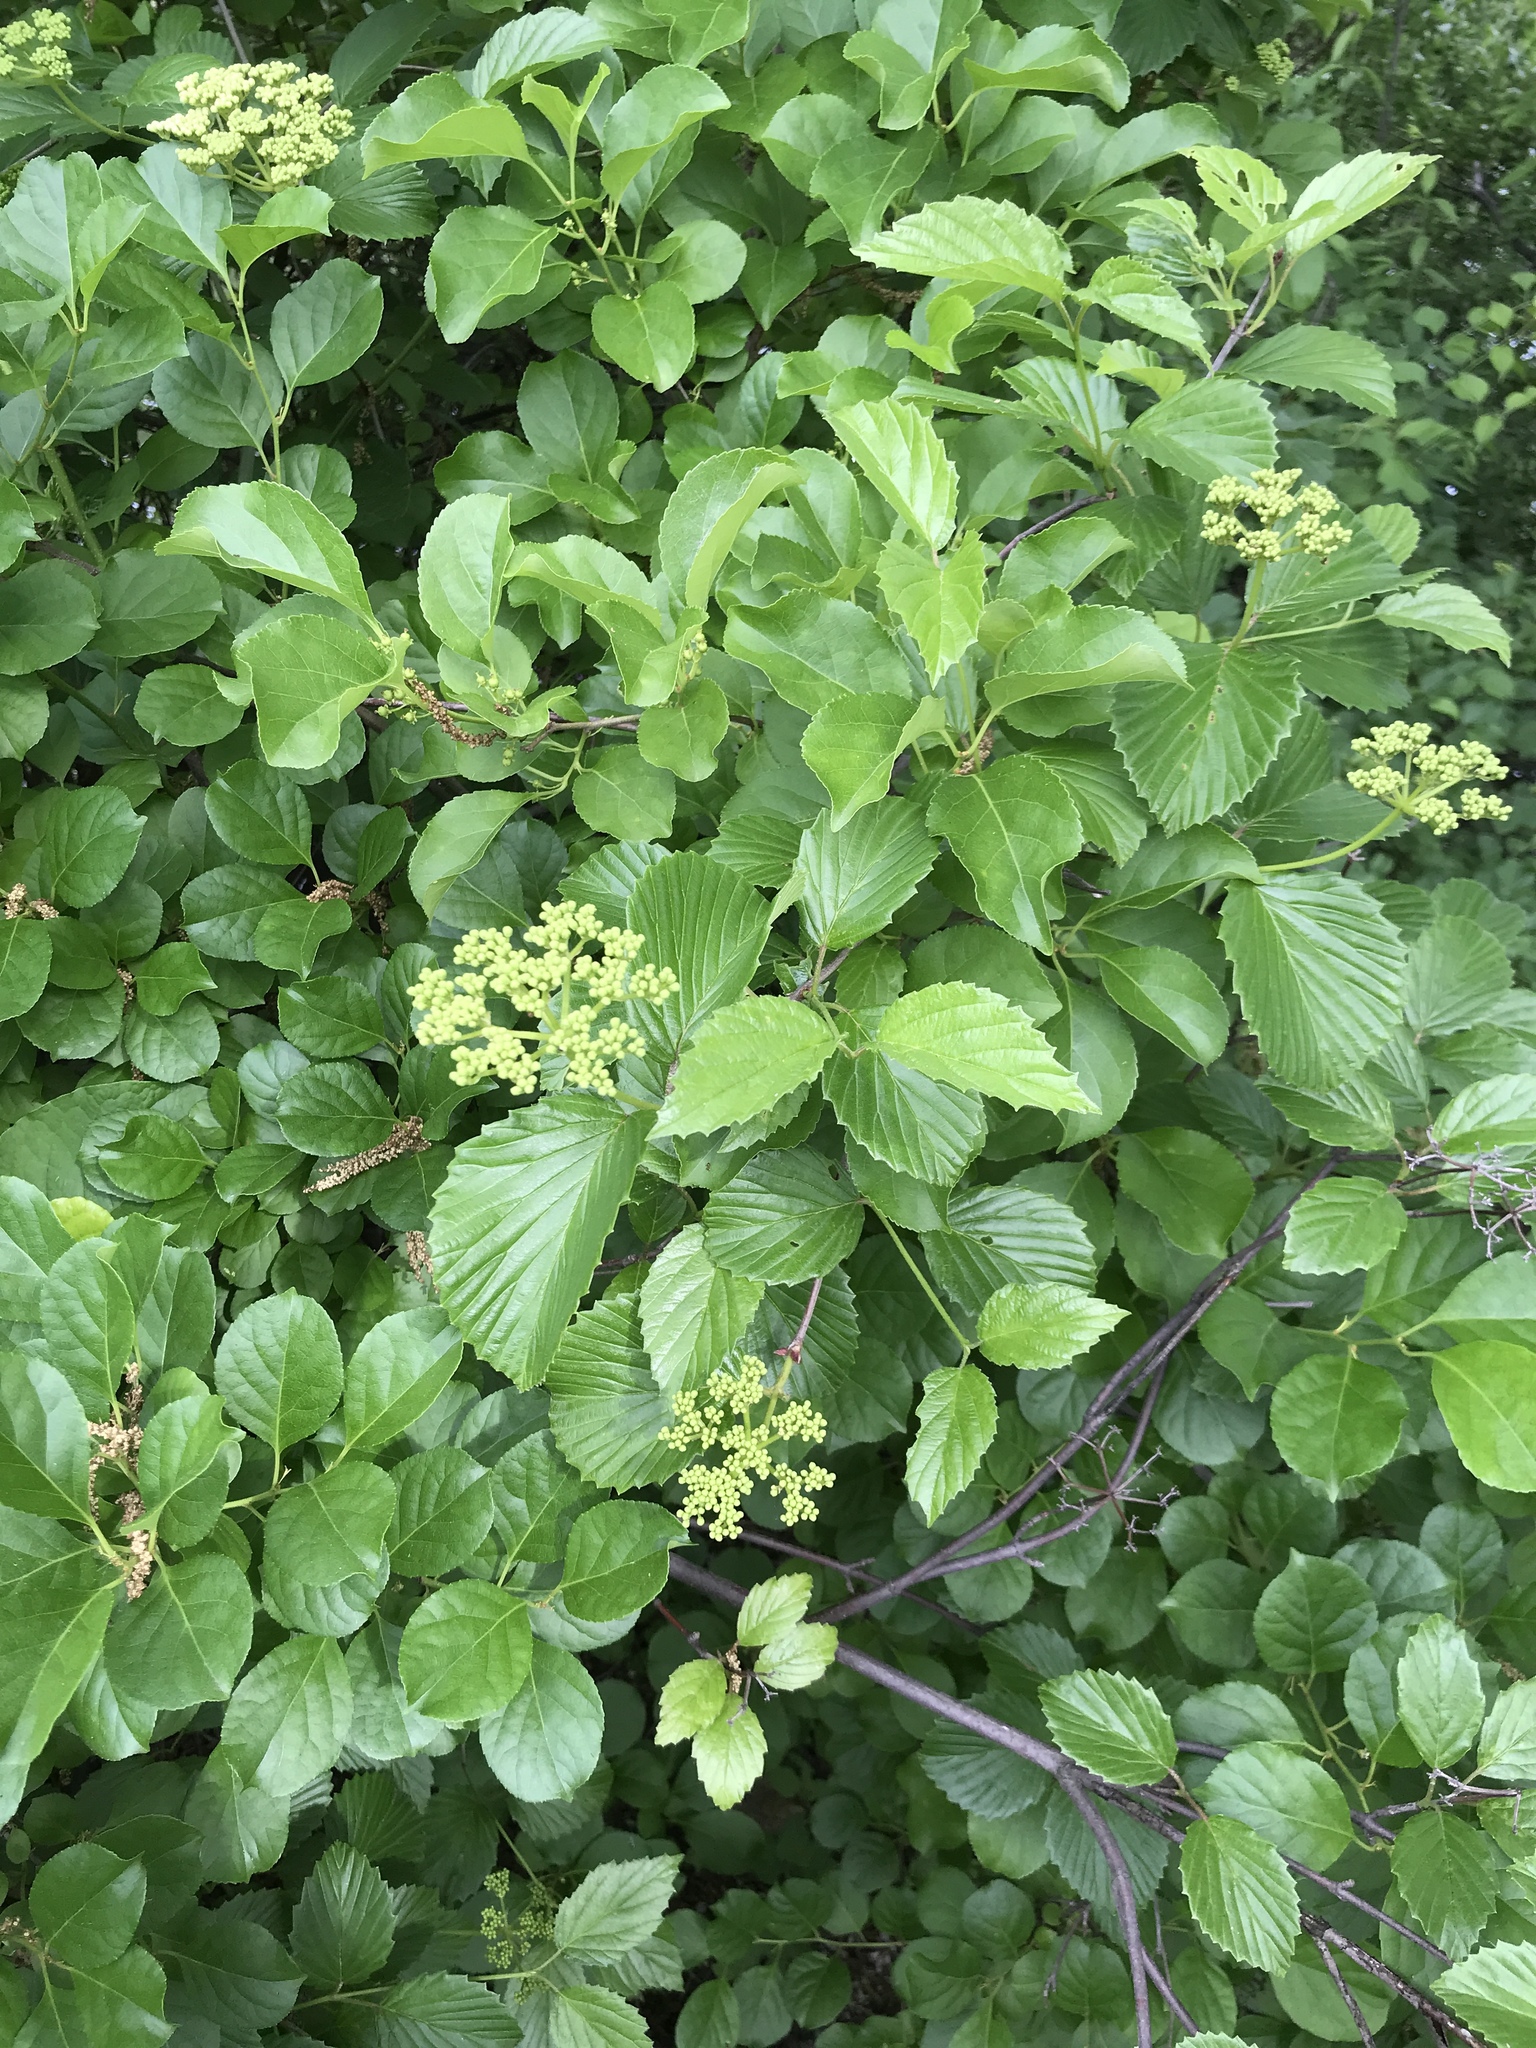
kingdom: Plantae
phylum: Tracheophyta
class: Magnoliopsida
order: Dipsacales
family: Viburnaceae
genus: Viburnum
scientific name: Viburnum dentatum
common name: Arrow-wood
